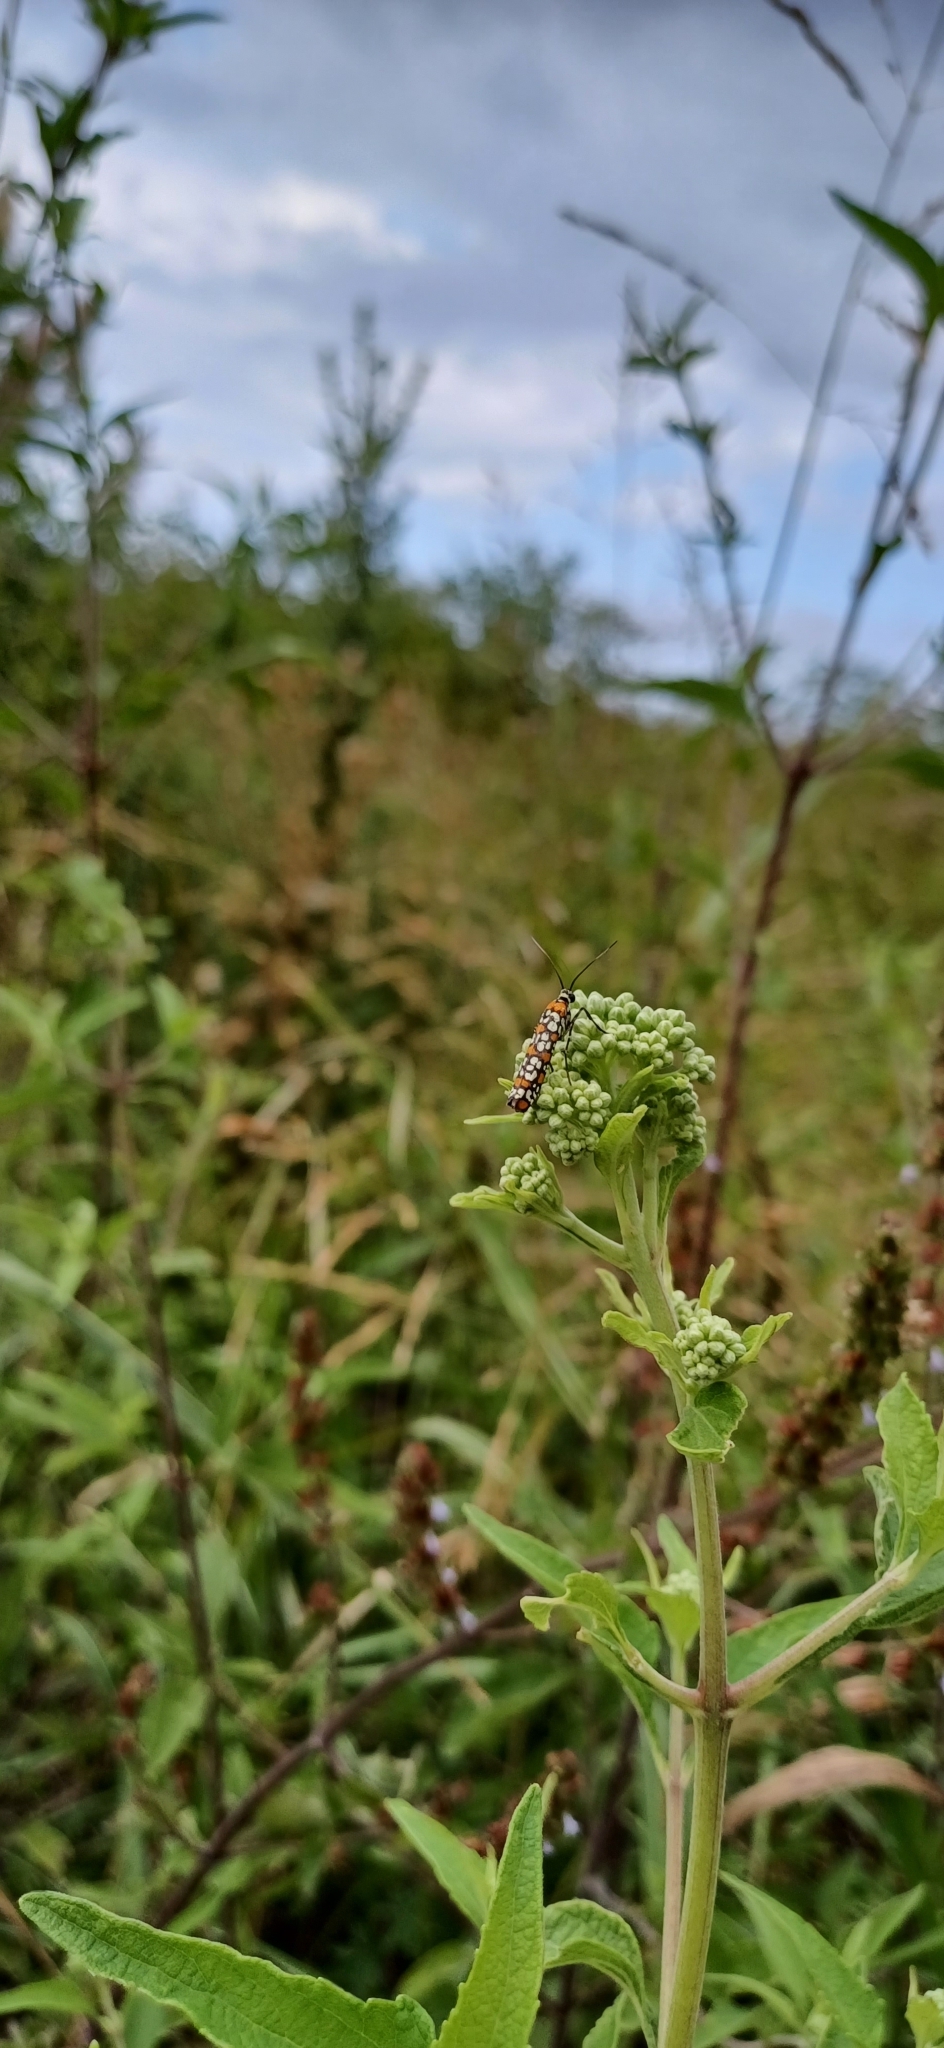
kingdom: Animalia
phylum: Arthropoda
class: Insecta
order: Lepidoptera
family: Attevidae
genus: Atteva
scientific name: Atteva punctella
